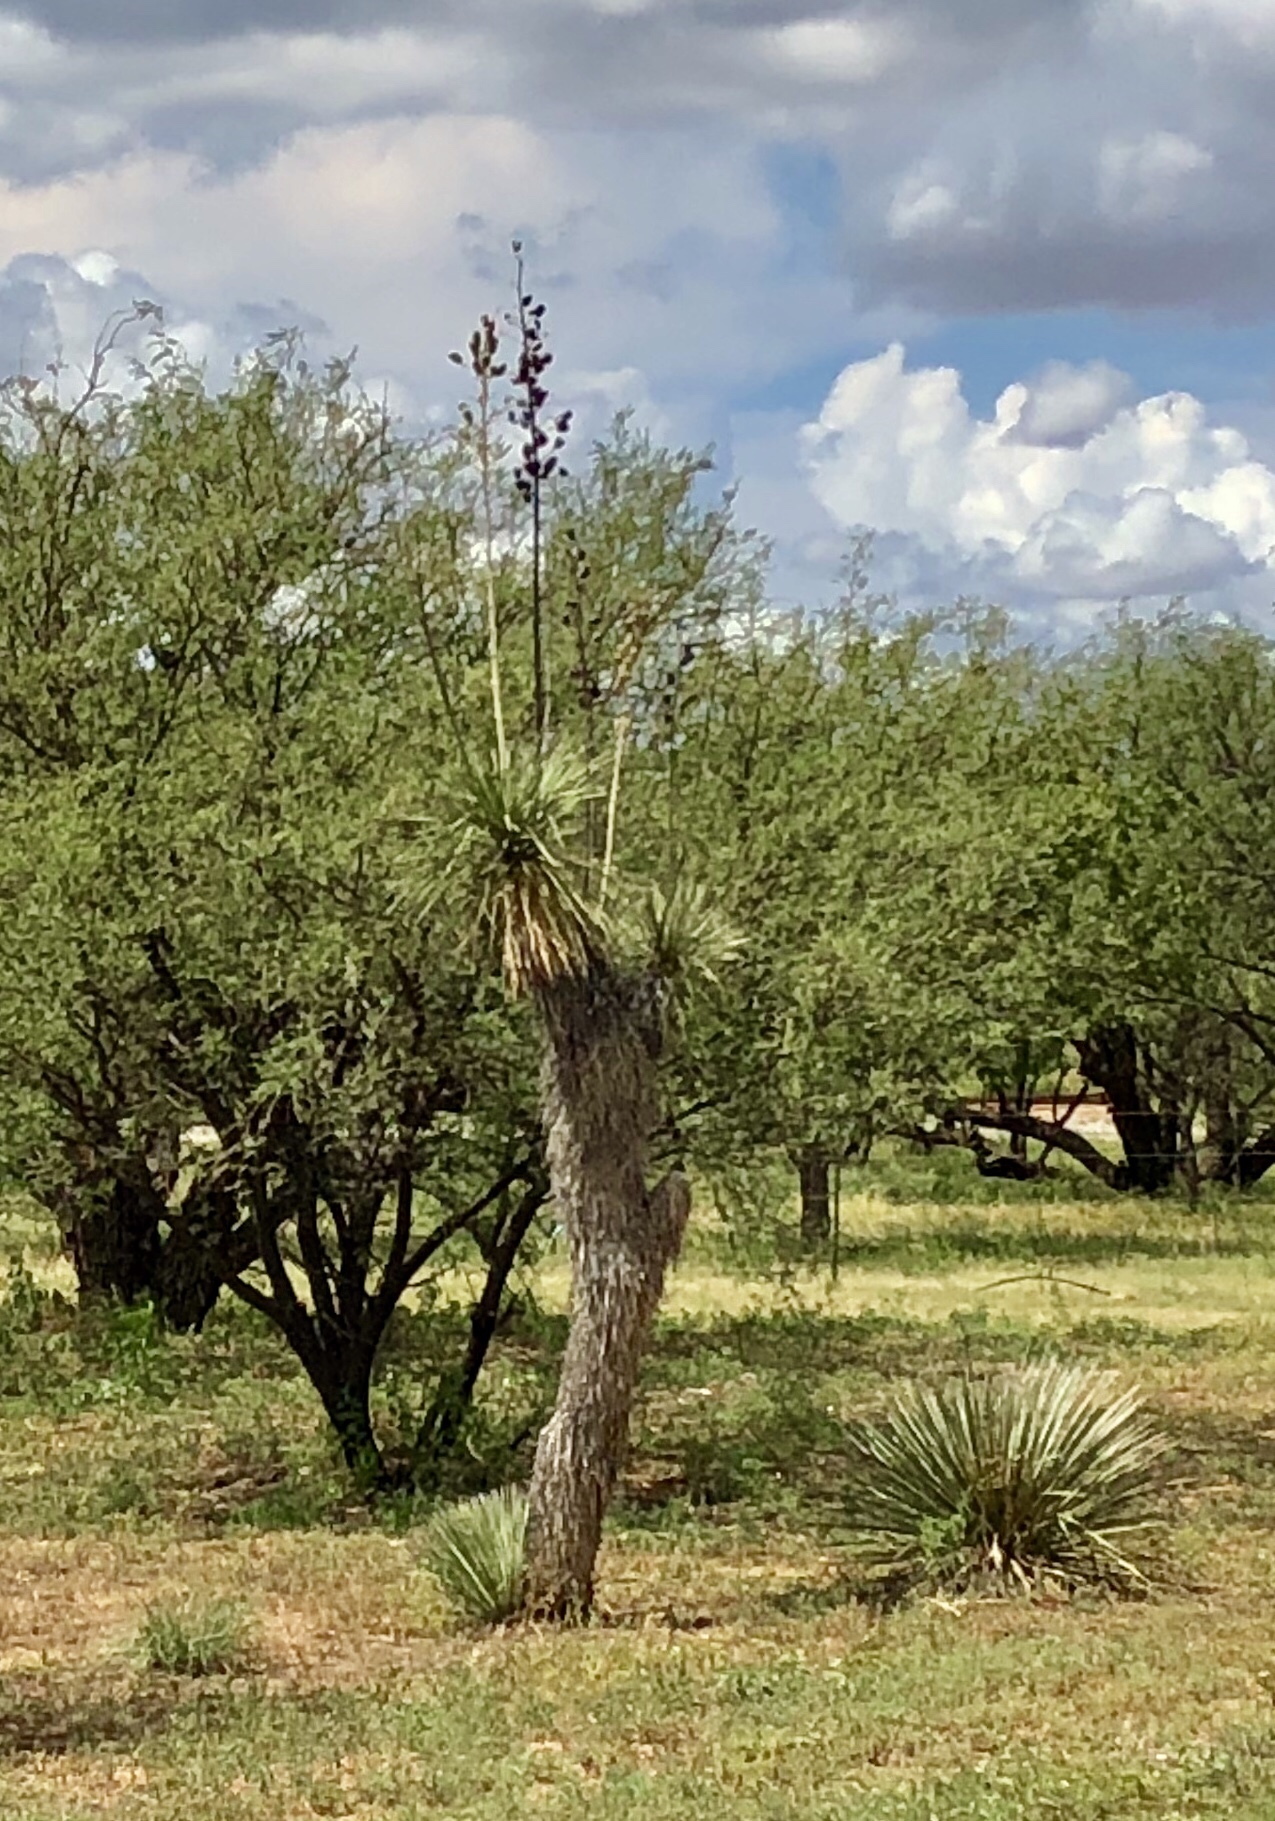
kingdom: Plantae
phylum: Tracheophyta
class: Liliopsida
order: Asparagales
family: Asparagaceae
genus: Yucca
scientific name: Yucca elata
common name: Palmella
